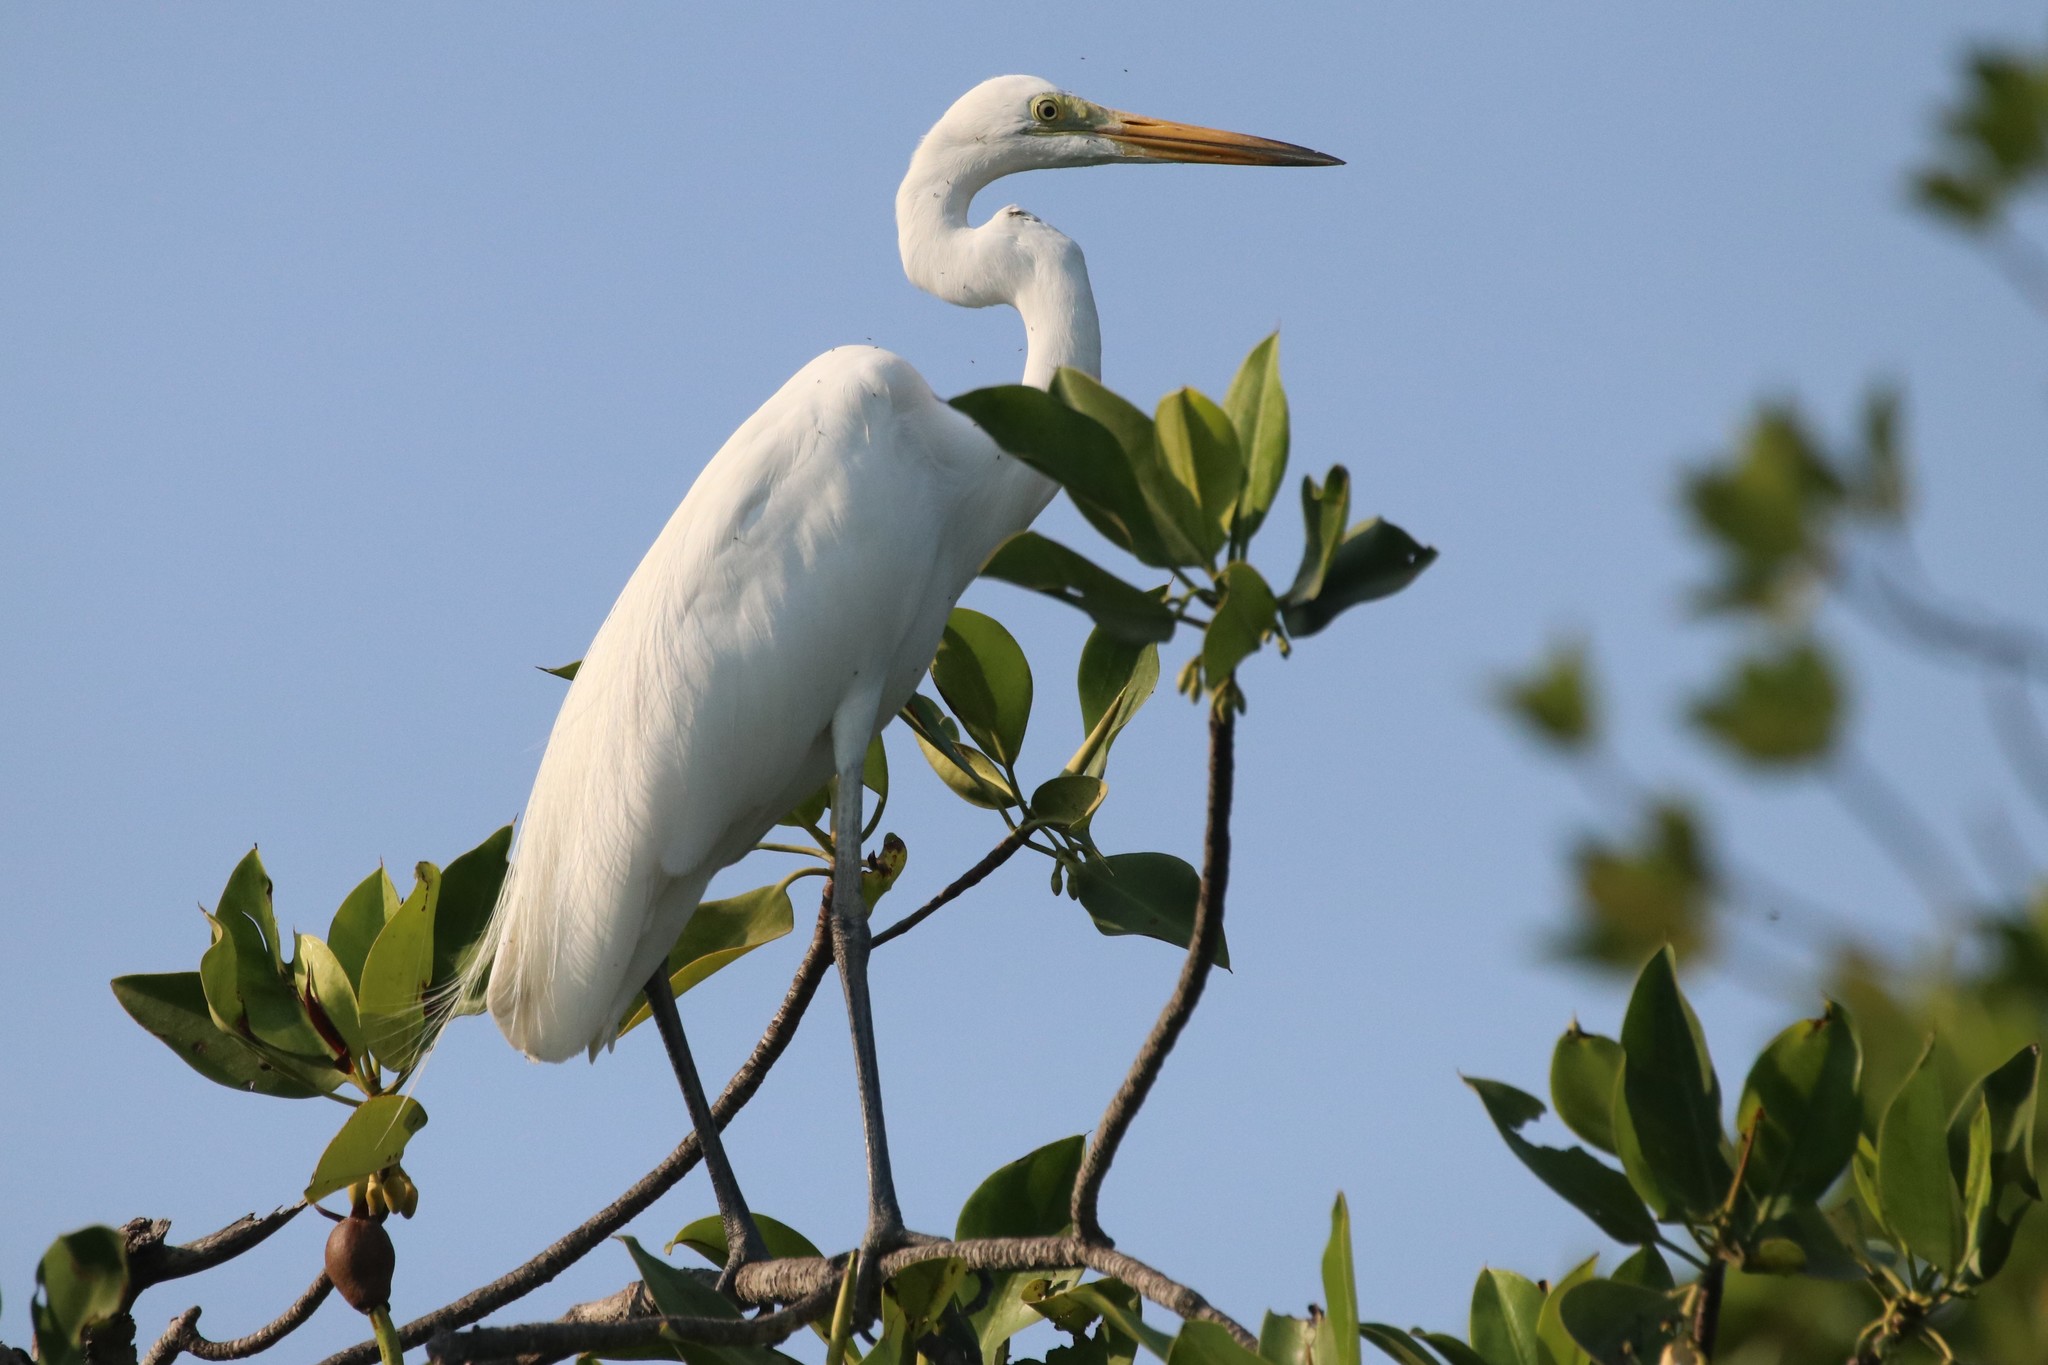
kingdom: Animalia
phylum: Chordata
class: Aves
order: Pelecaniformes
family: Ardeidae
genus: Ardea
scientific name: Ardea alba
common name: Great egret
